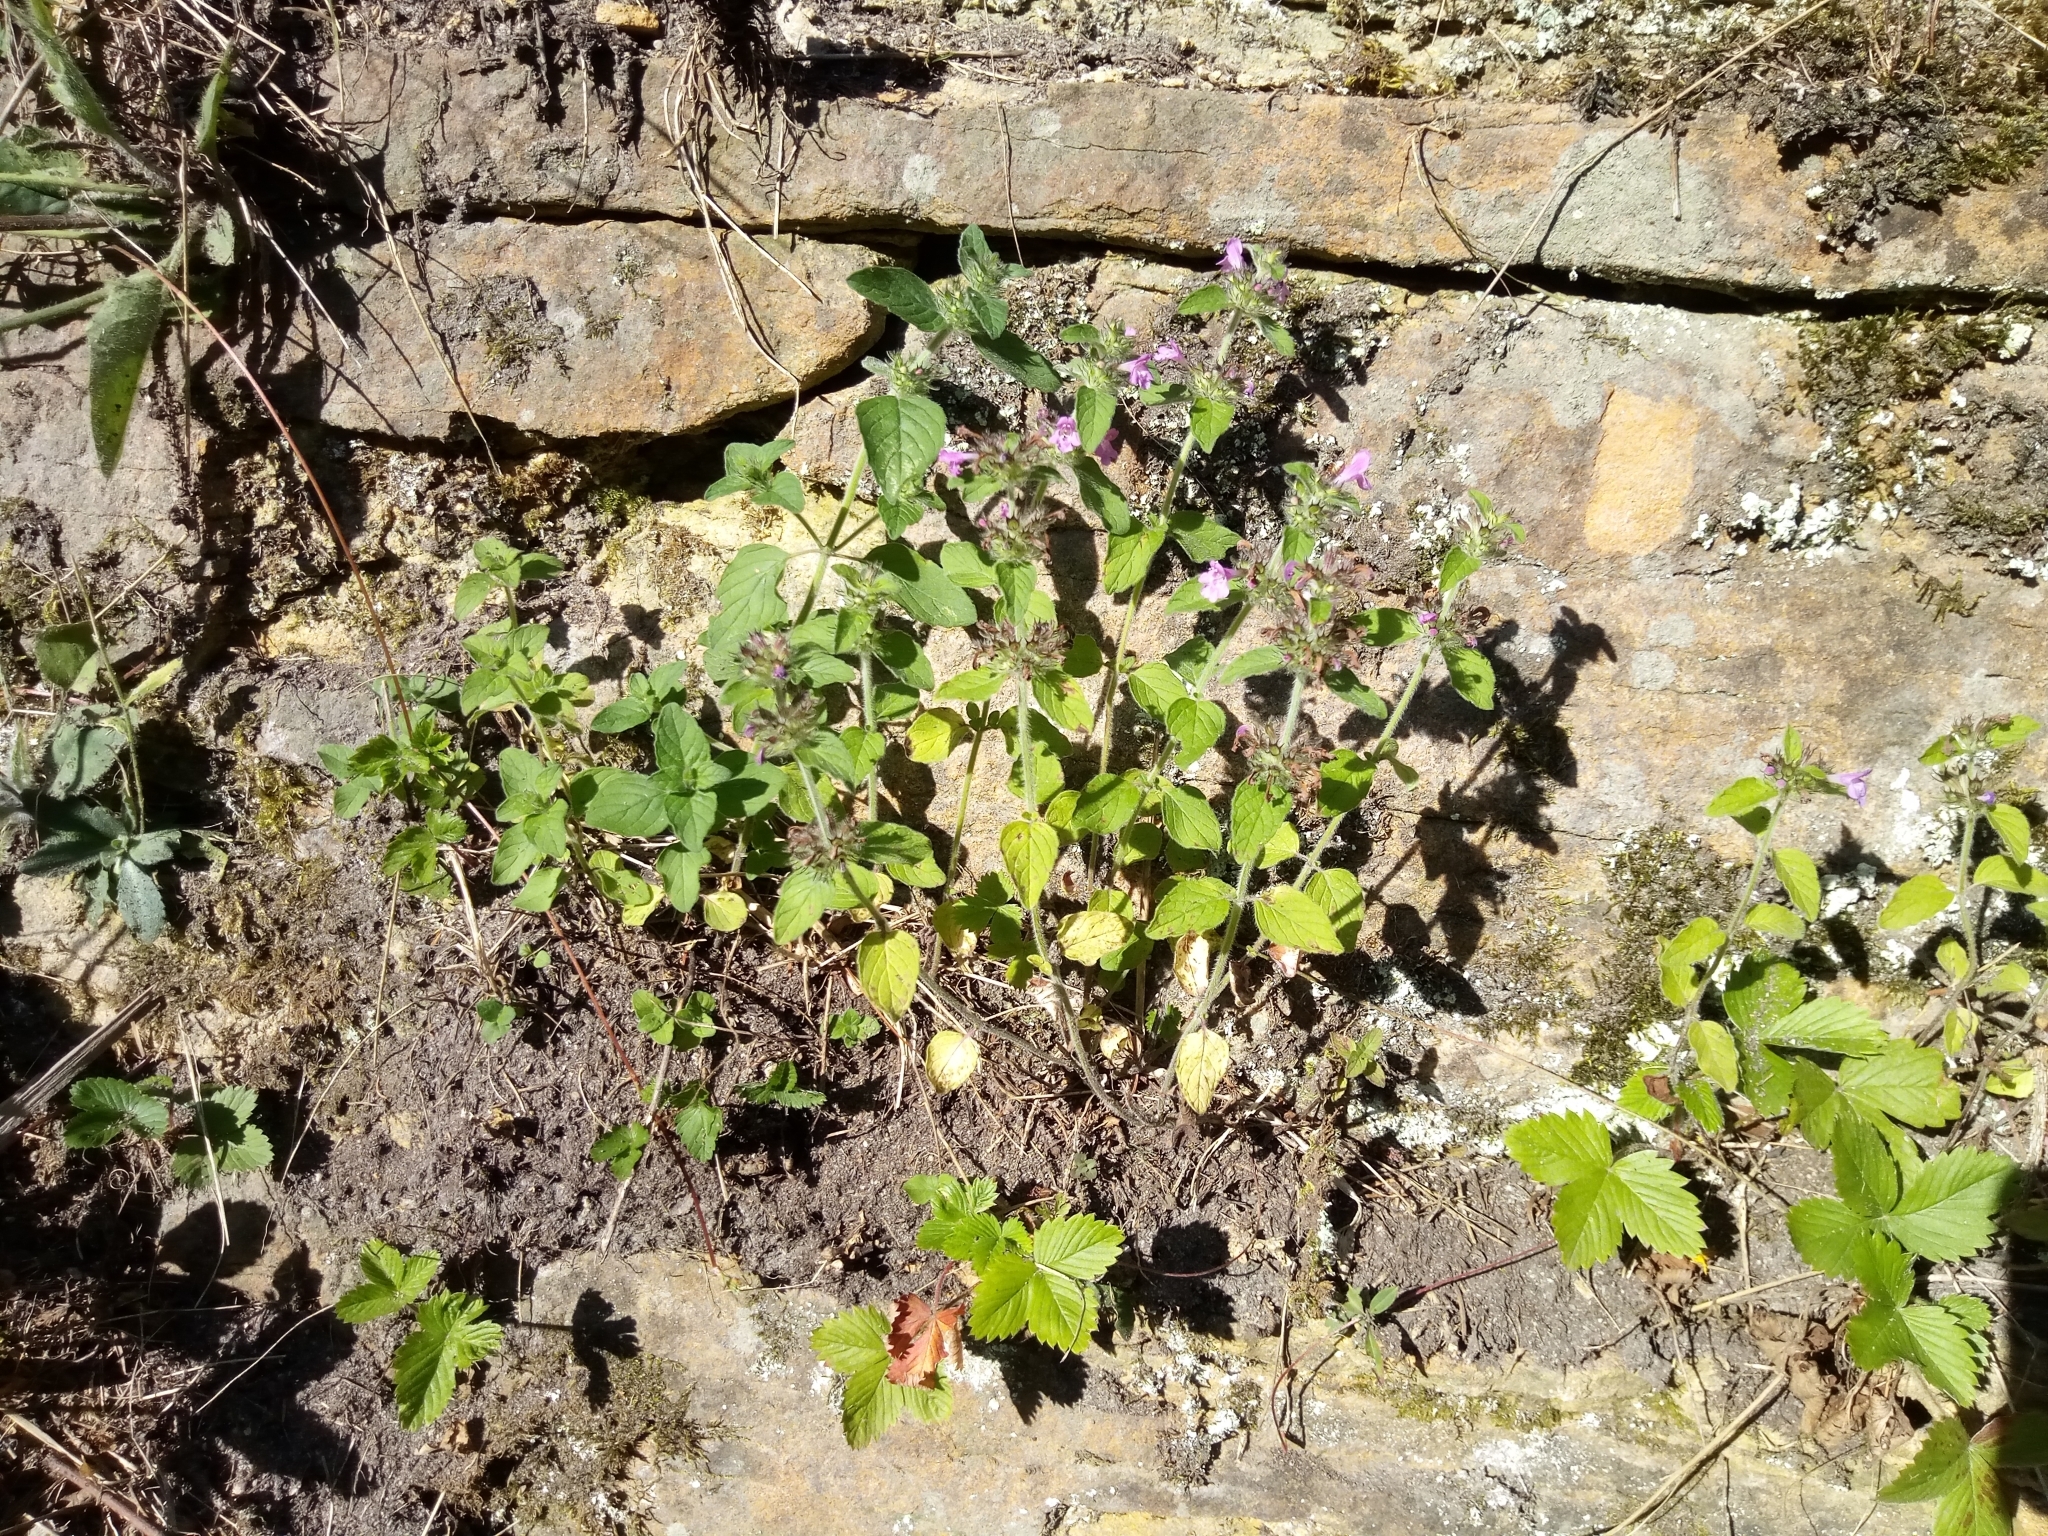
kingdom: Plantae
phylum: Tracheophyta
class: Magnoliopsida
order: Lamiales
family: Lamiaceae
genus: Clinopodium
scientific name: Clinopodium vulgare
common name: Wild basil
